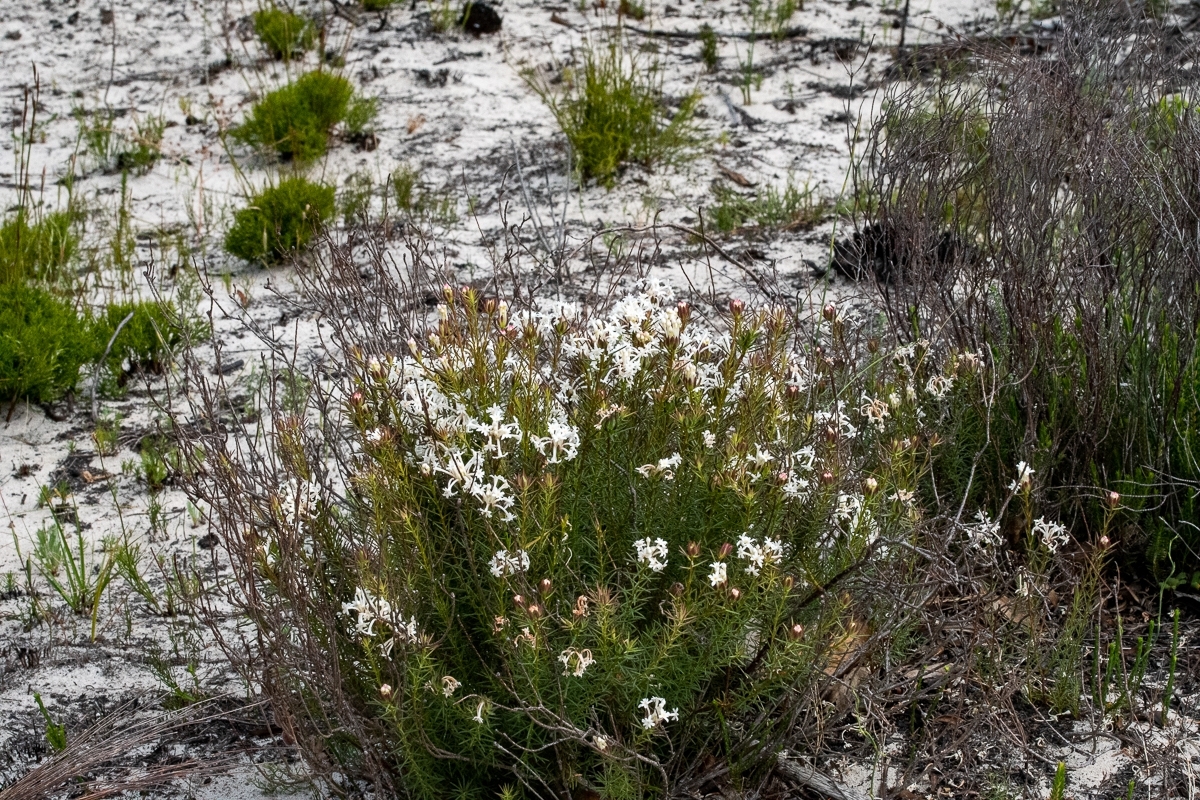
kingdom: Plantae
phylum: Tracheophyta
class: Magnoliopsida
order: Malvales
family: Thymelaeaceae
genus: Gnidia
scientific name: Gnidia pinifolia
